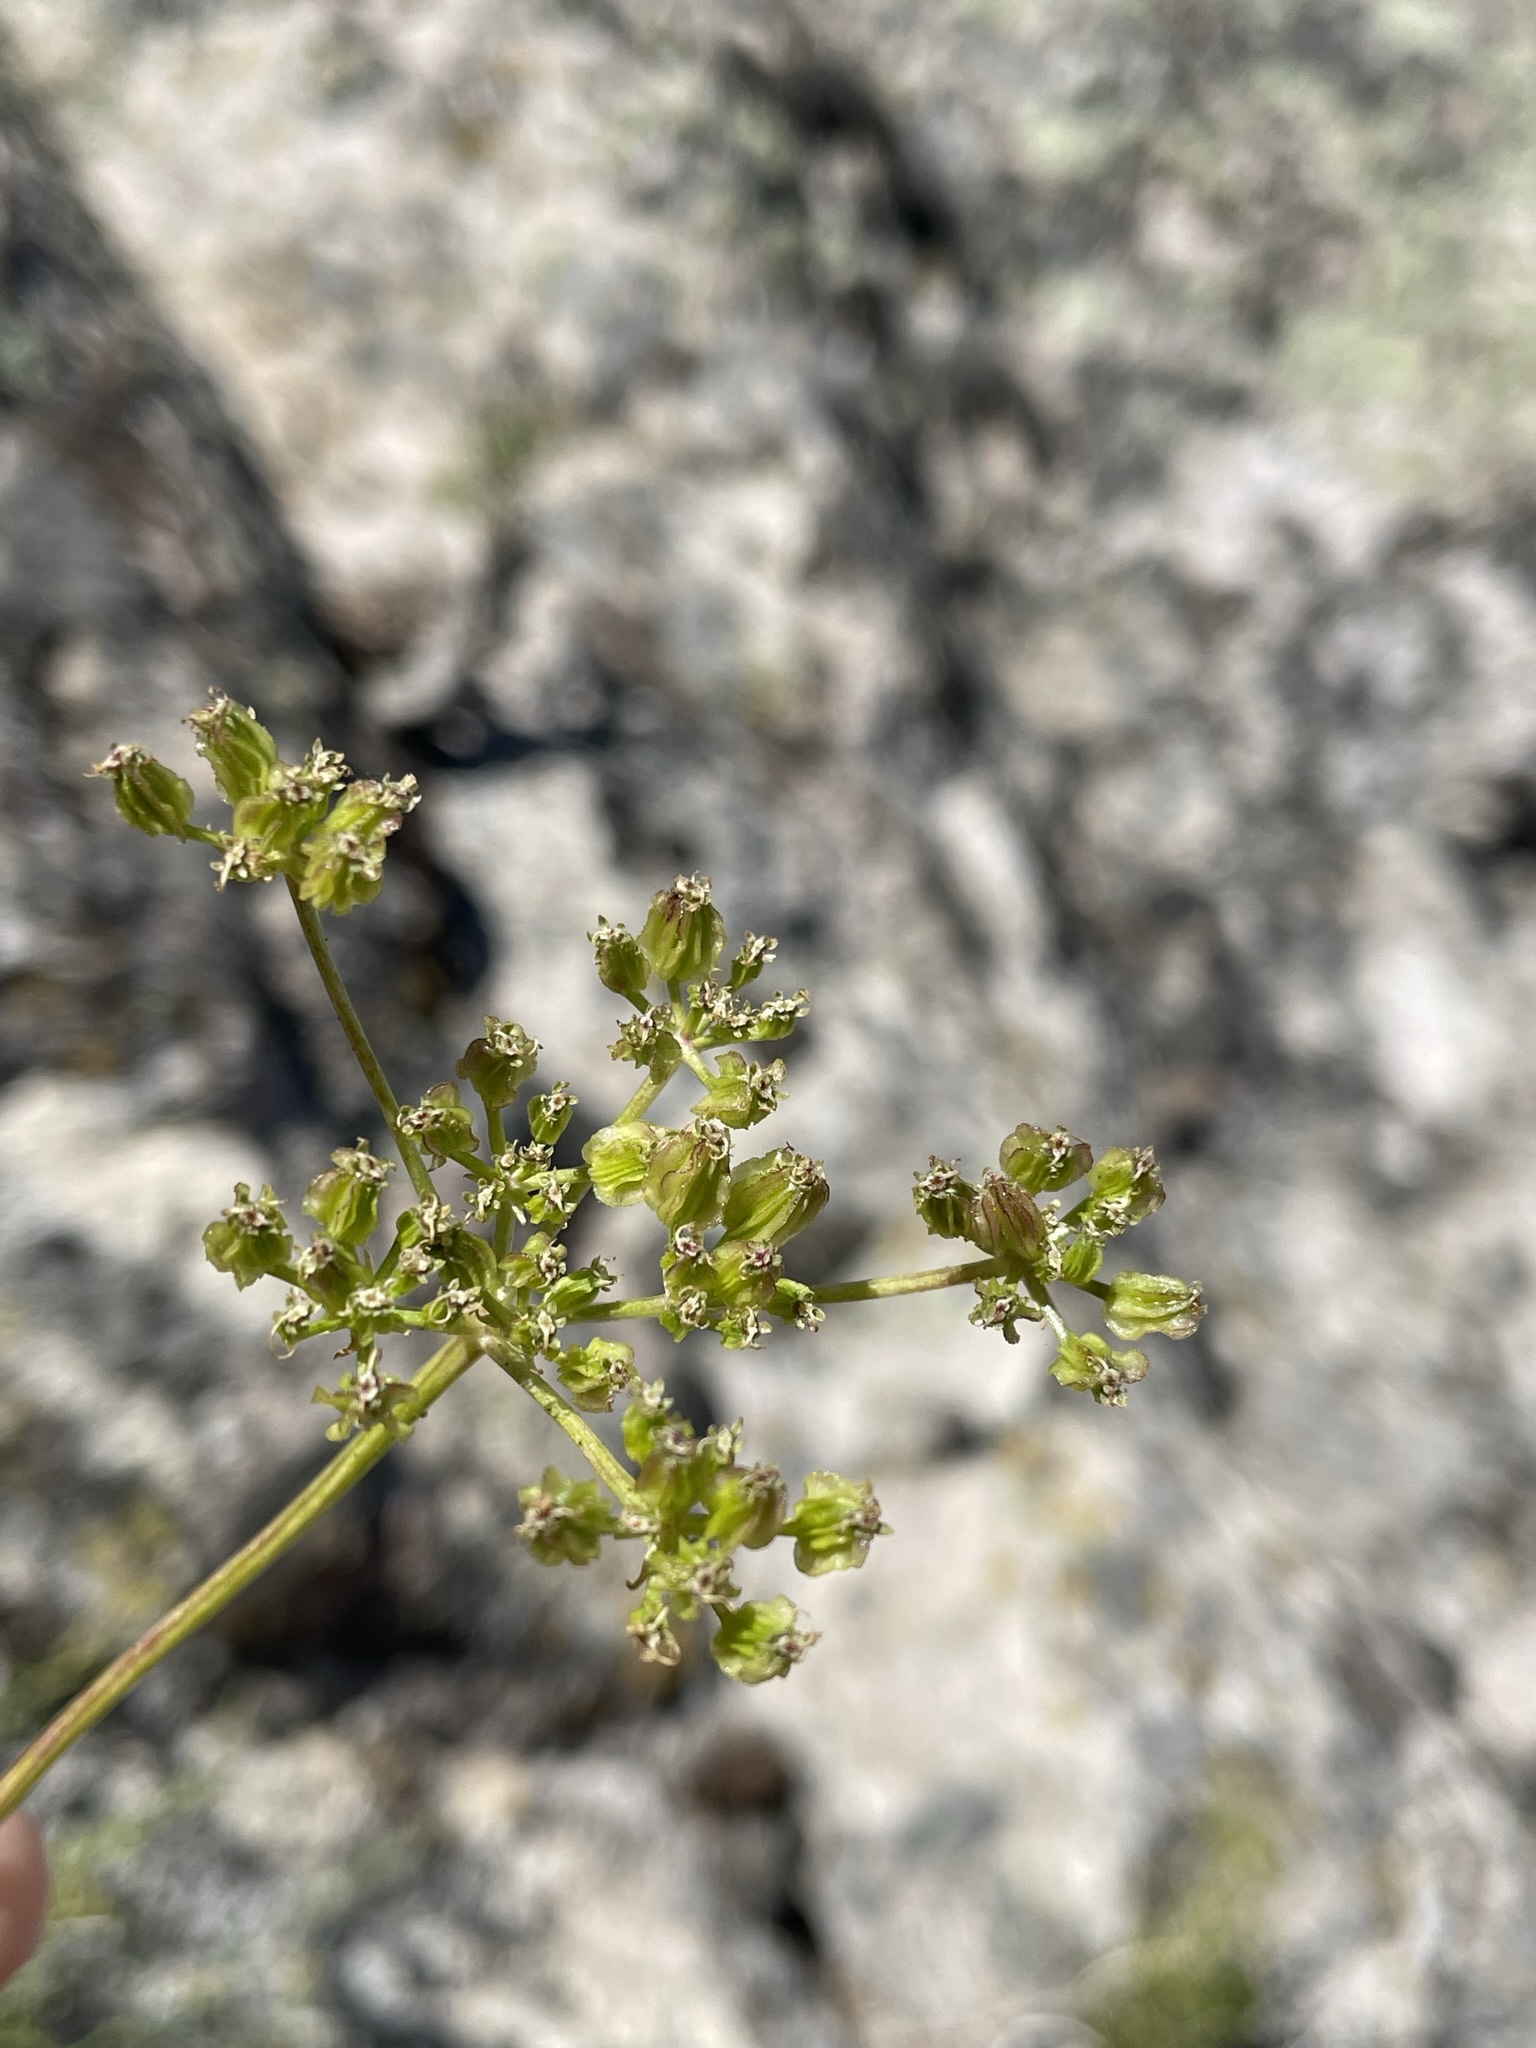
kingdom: Plantae
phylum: Tracheophyta
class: Magnoliopsida
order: Apiales
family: Apiaceae
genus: Pteryxia
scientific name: Pteryxia petraea
